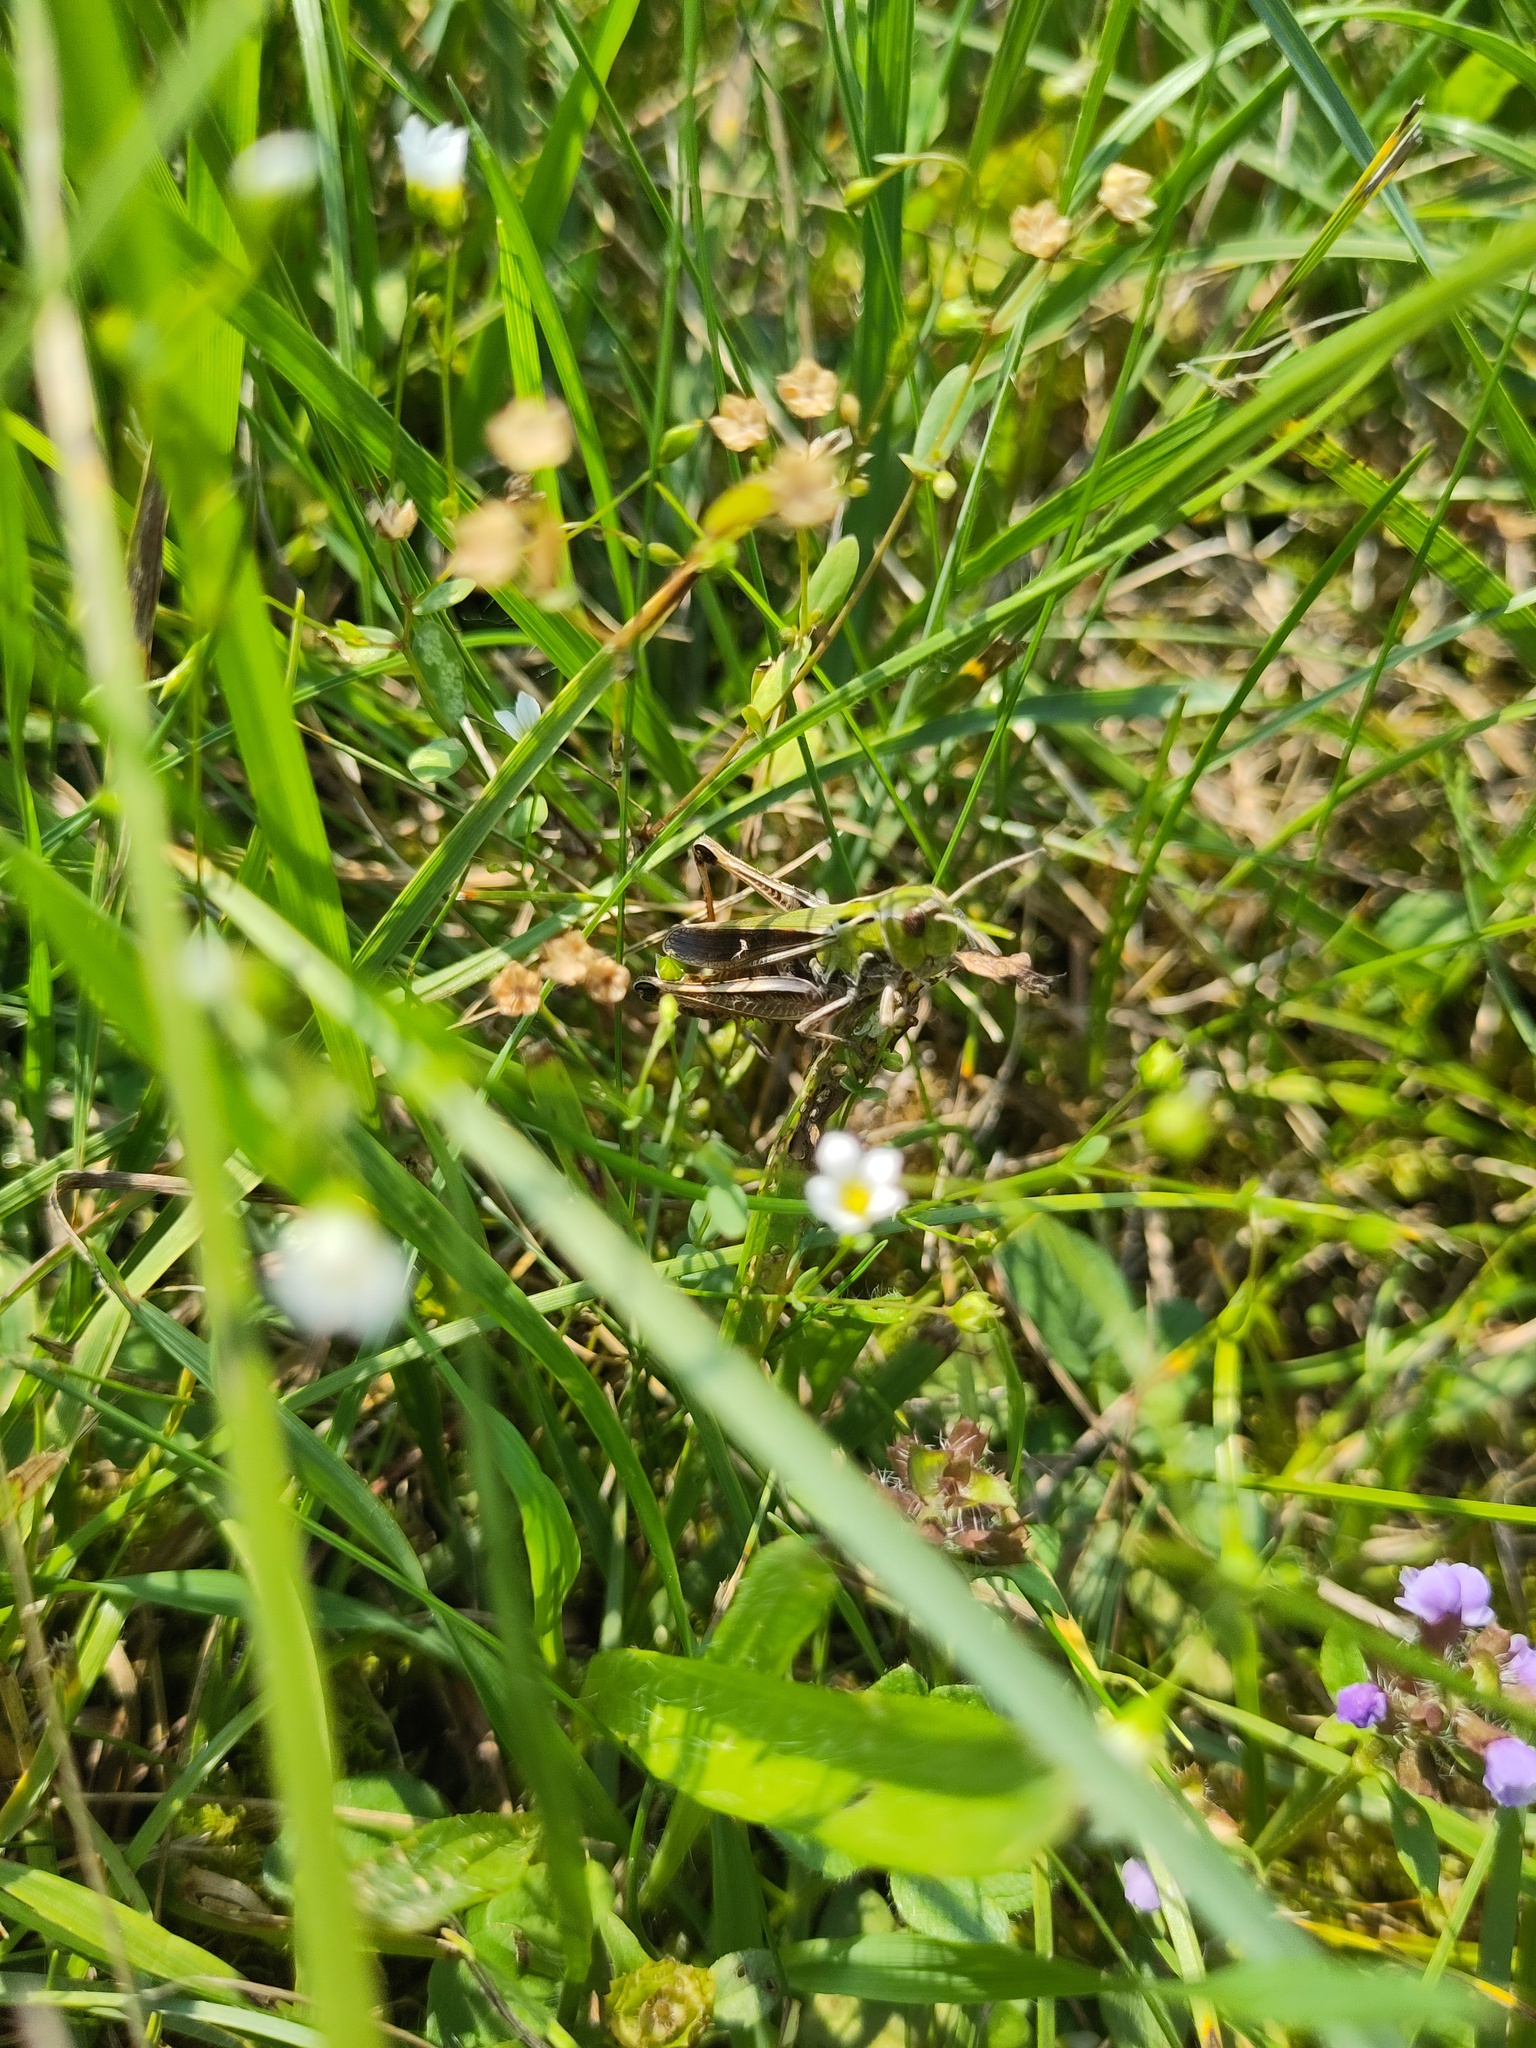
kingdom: Animalia
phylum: Arthropoda
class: Insecta
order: Orthoptera
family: Acrididae
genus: Stenobothrus
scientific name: Stenobothrus lineatus
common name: Stripe-winged grasshopper
